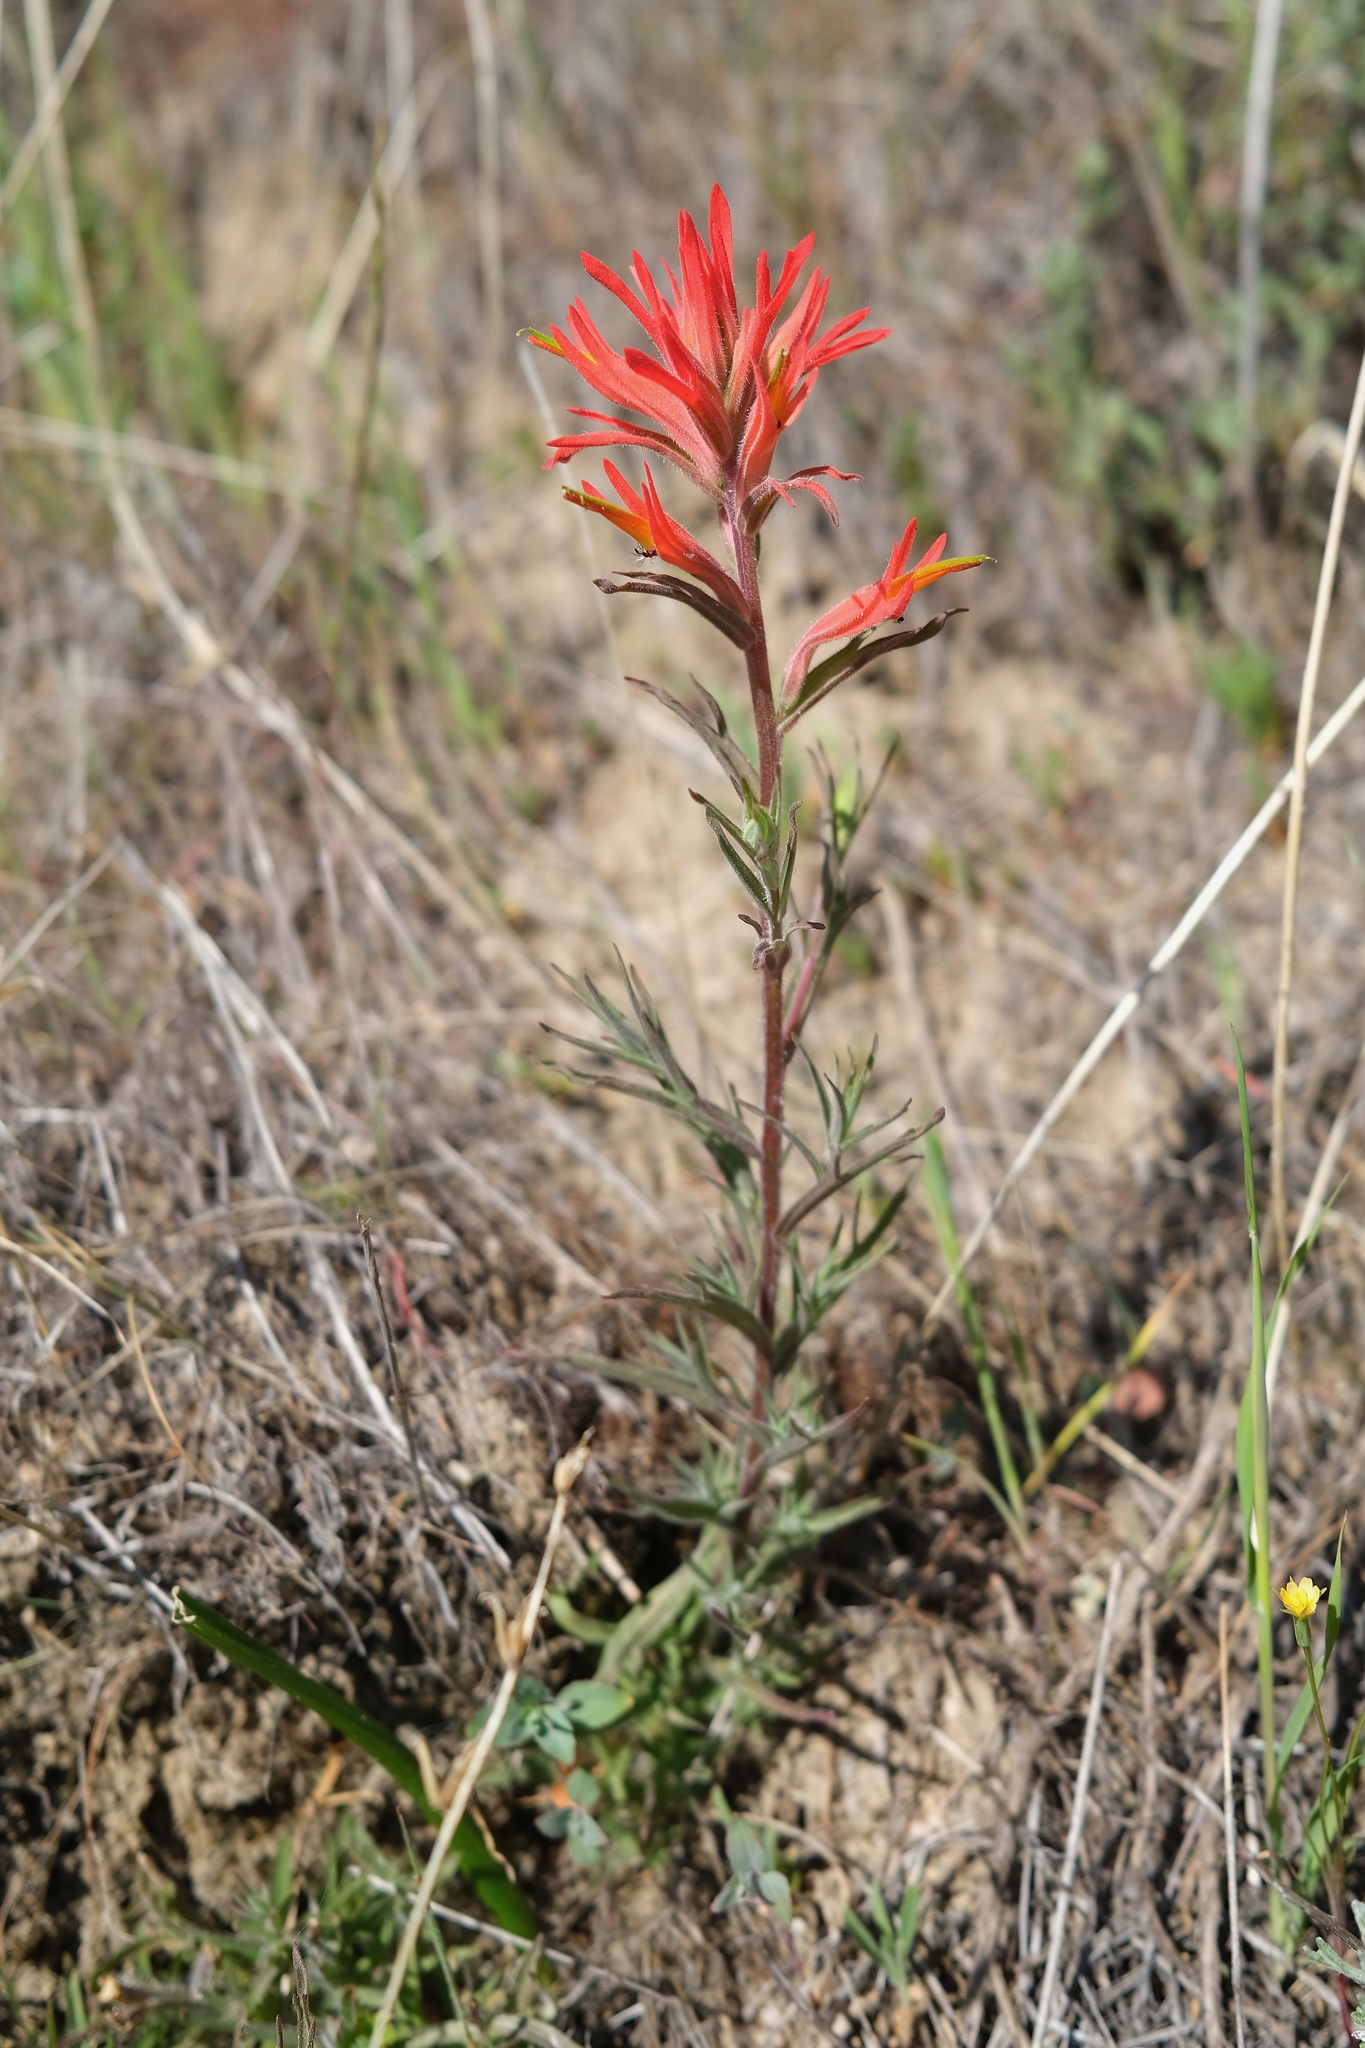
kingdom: Plantae
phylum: Tracheophyta
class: Magnoliopsida
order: Lamiales
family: Orobanchaceae
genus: Castilleja
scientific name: Castilleja subinclusa
